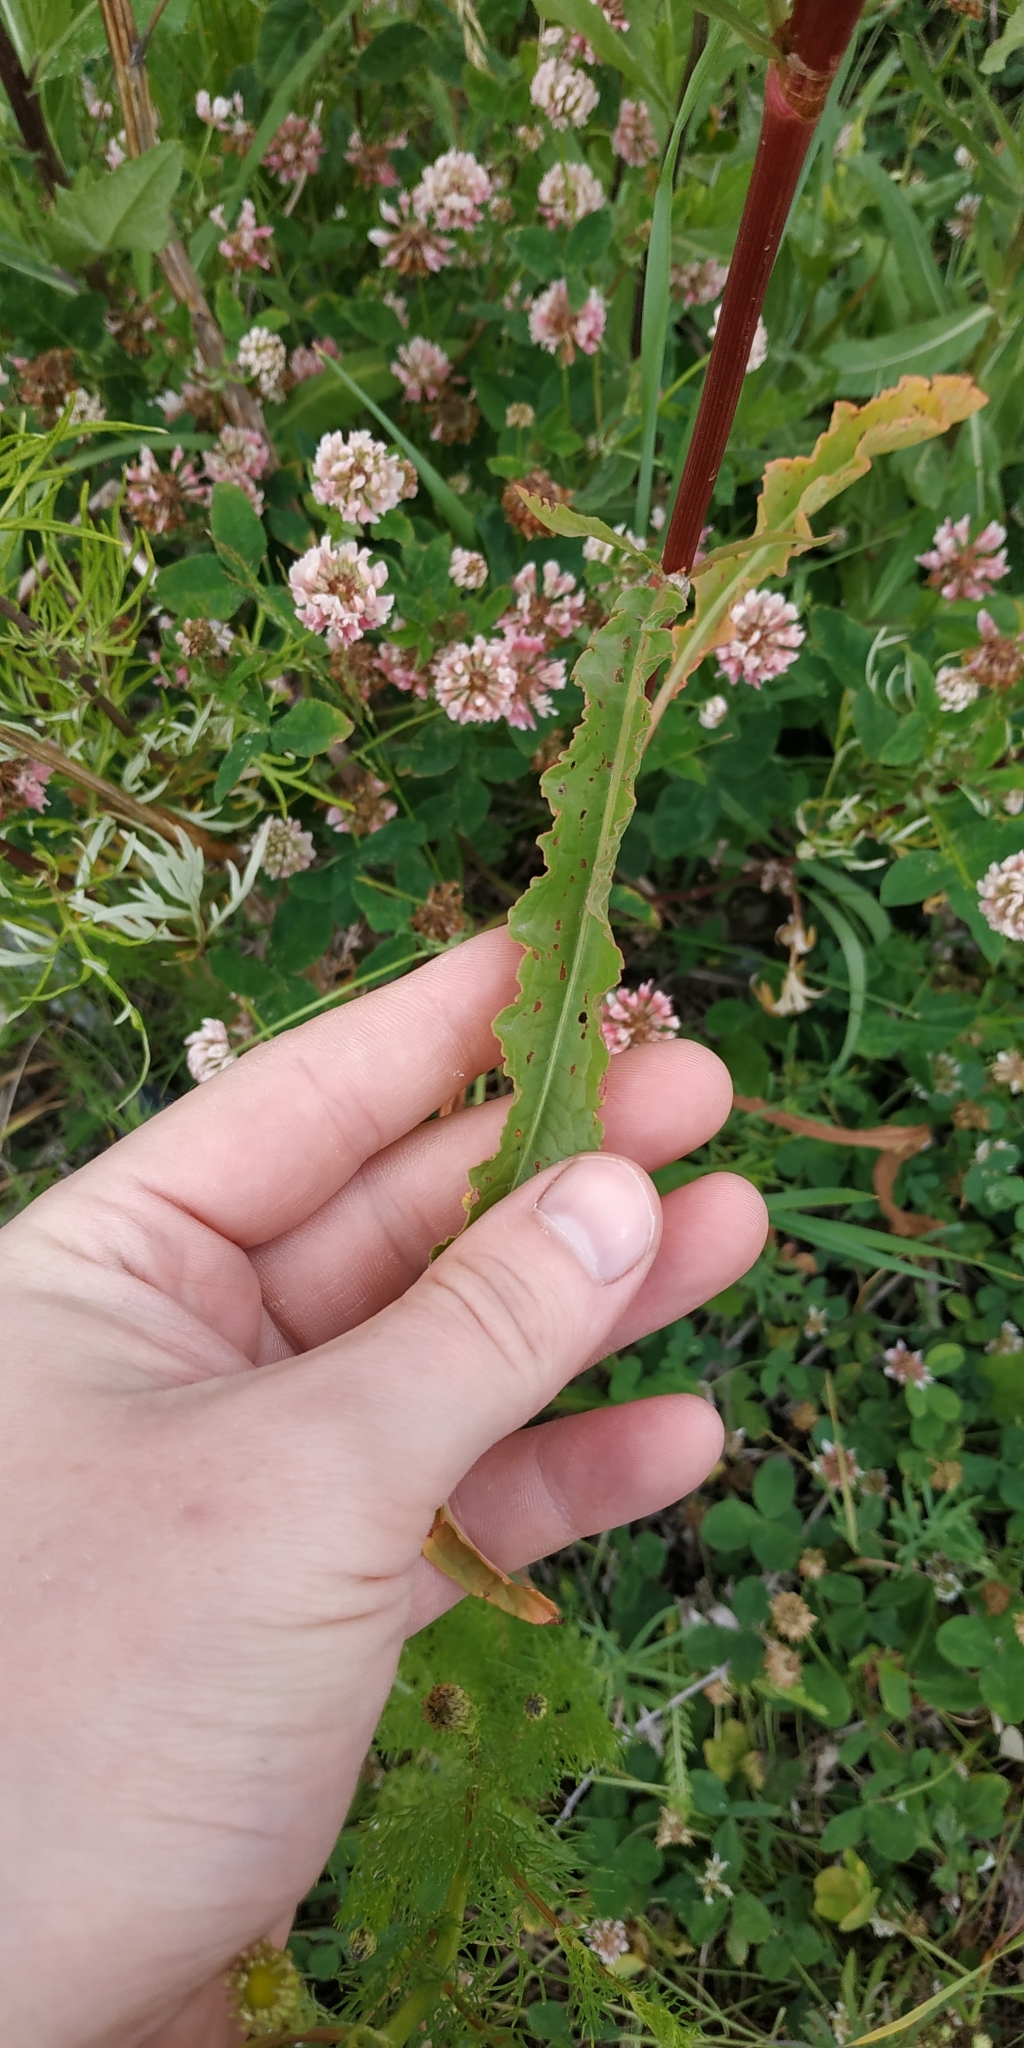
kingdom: Plantae
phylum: Tracheophyta
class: Magnoliopsida
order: Caryophyllales
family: Polygonaceae
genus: Rumex
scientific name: Rumex pseudonatronatus
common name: Field dock
